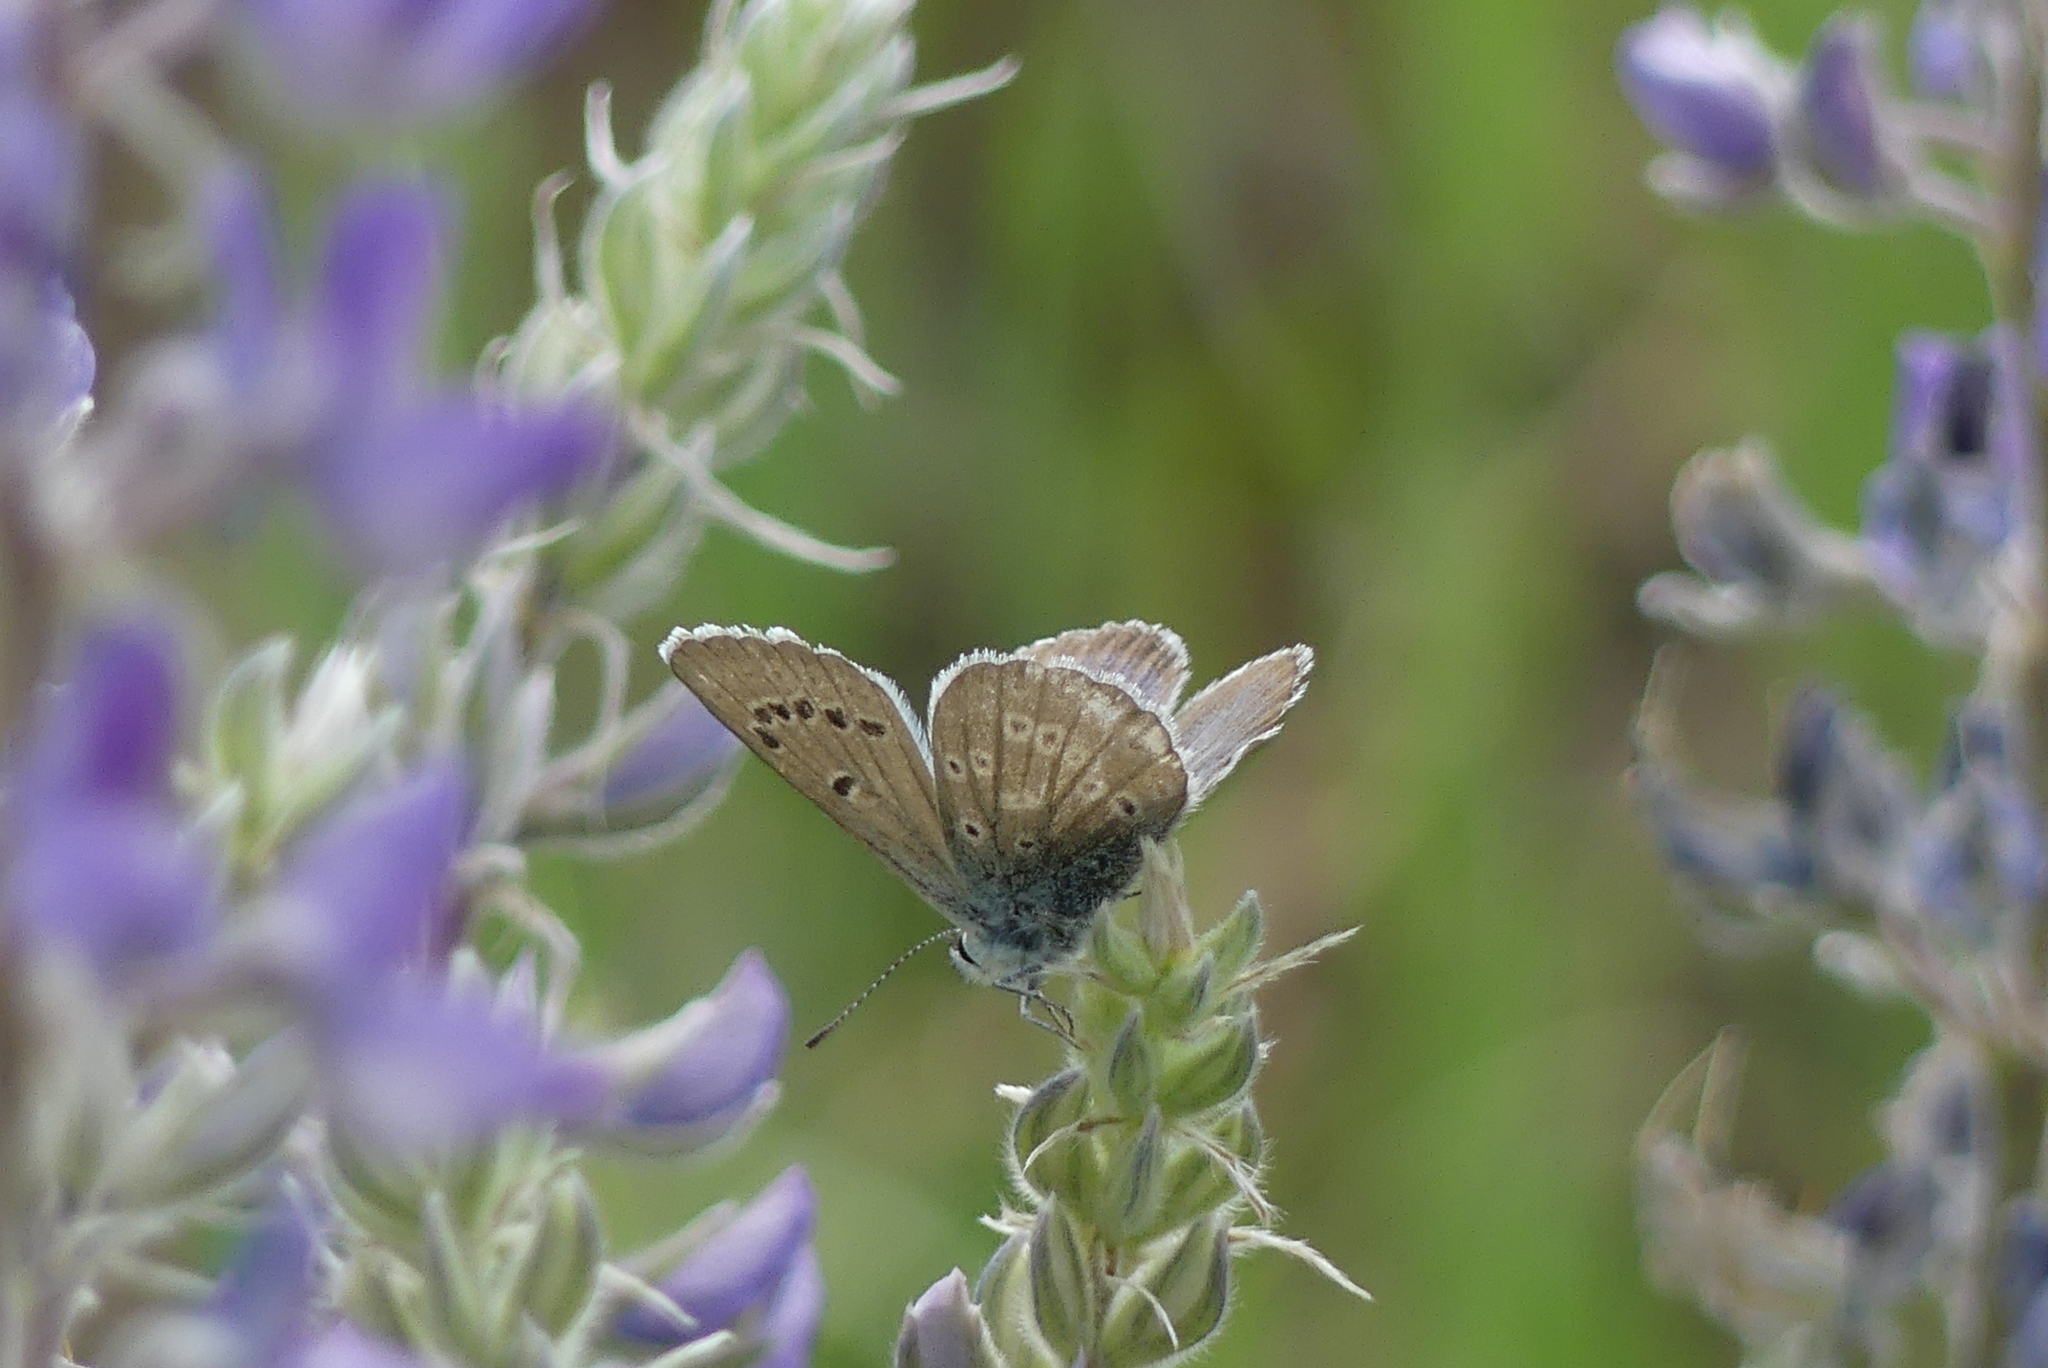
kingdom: Animalia
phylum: Arthropoda
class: Insecta
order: Lepidoptera
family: Lycaenidae
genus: Icaricia
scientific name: Icaricia icarioides
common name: Boisduval's blue
